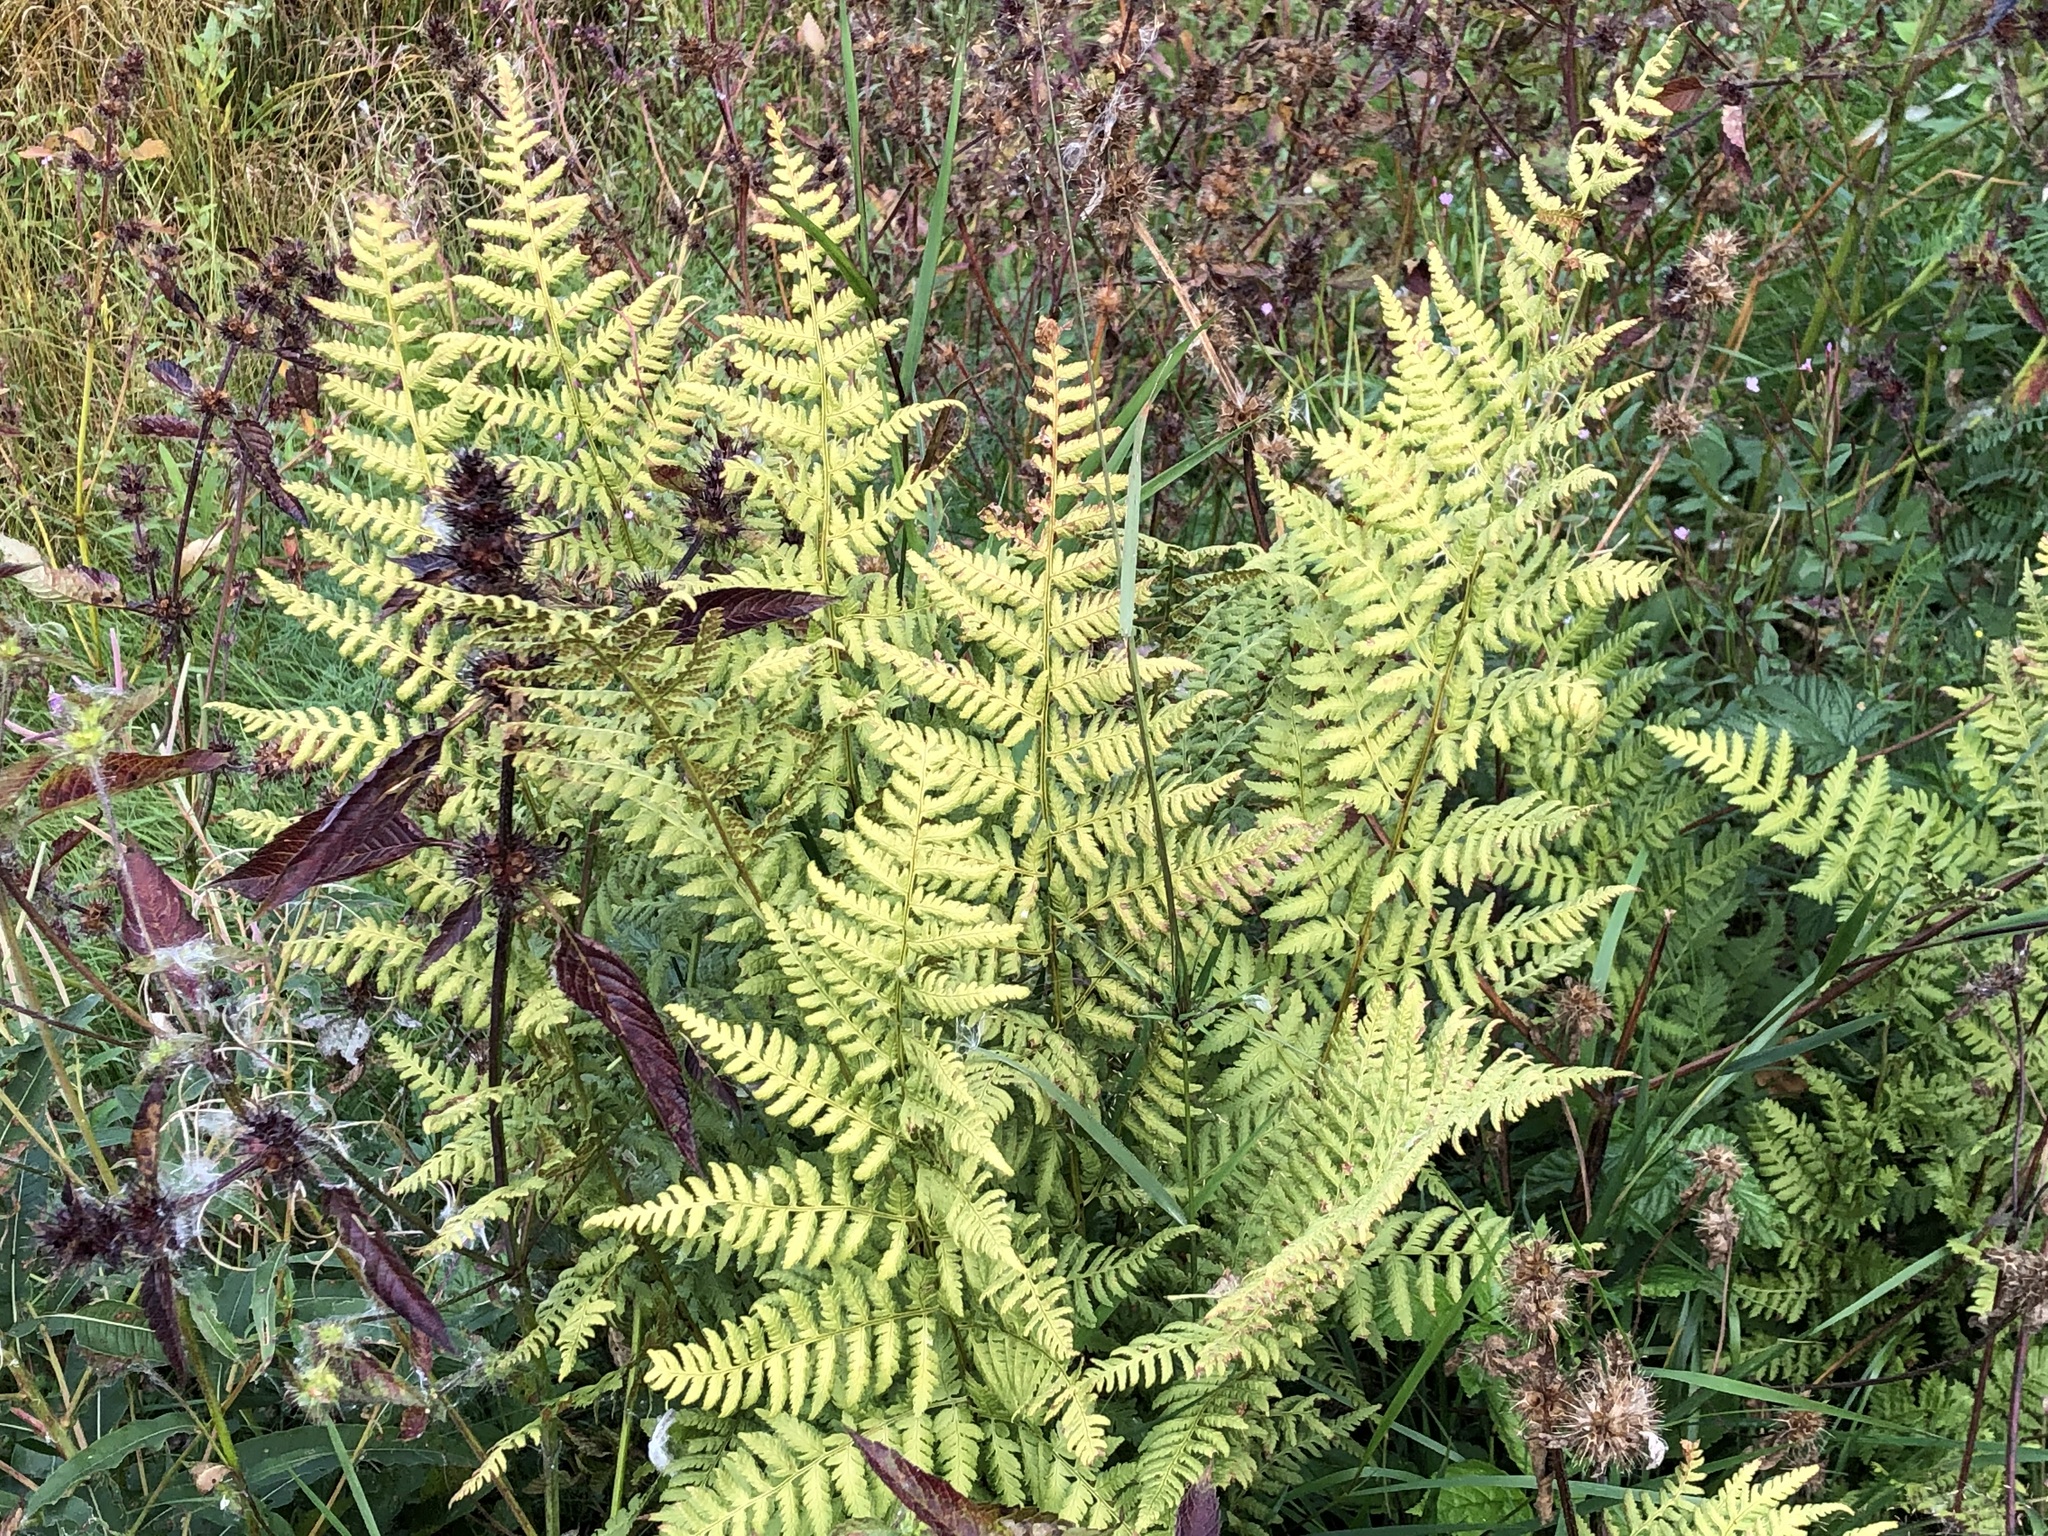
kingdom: Plantae
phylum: Tracheophyta
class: Polypodiopsida
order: Polypodiales
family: Dryopteridaceae
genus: Dryopteris
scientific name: Dryopteris carthusiana
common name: Narrow buckler-fern
